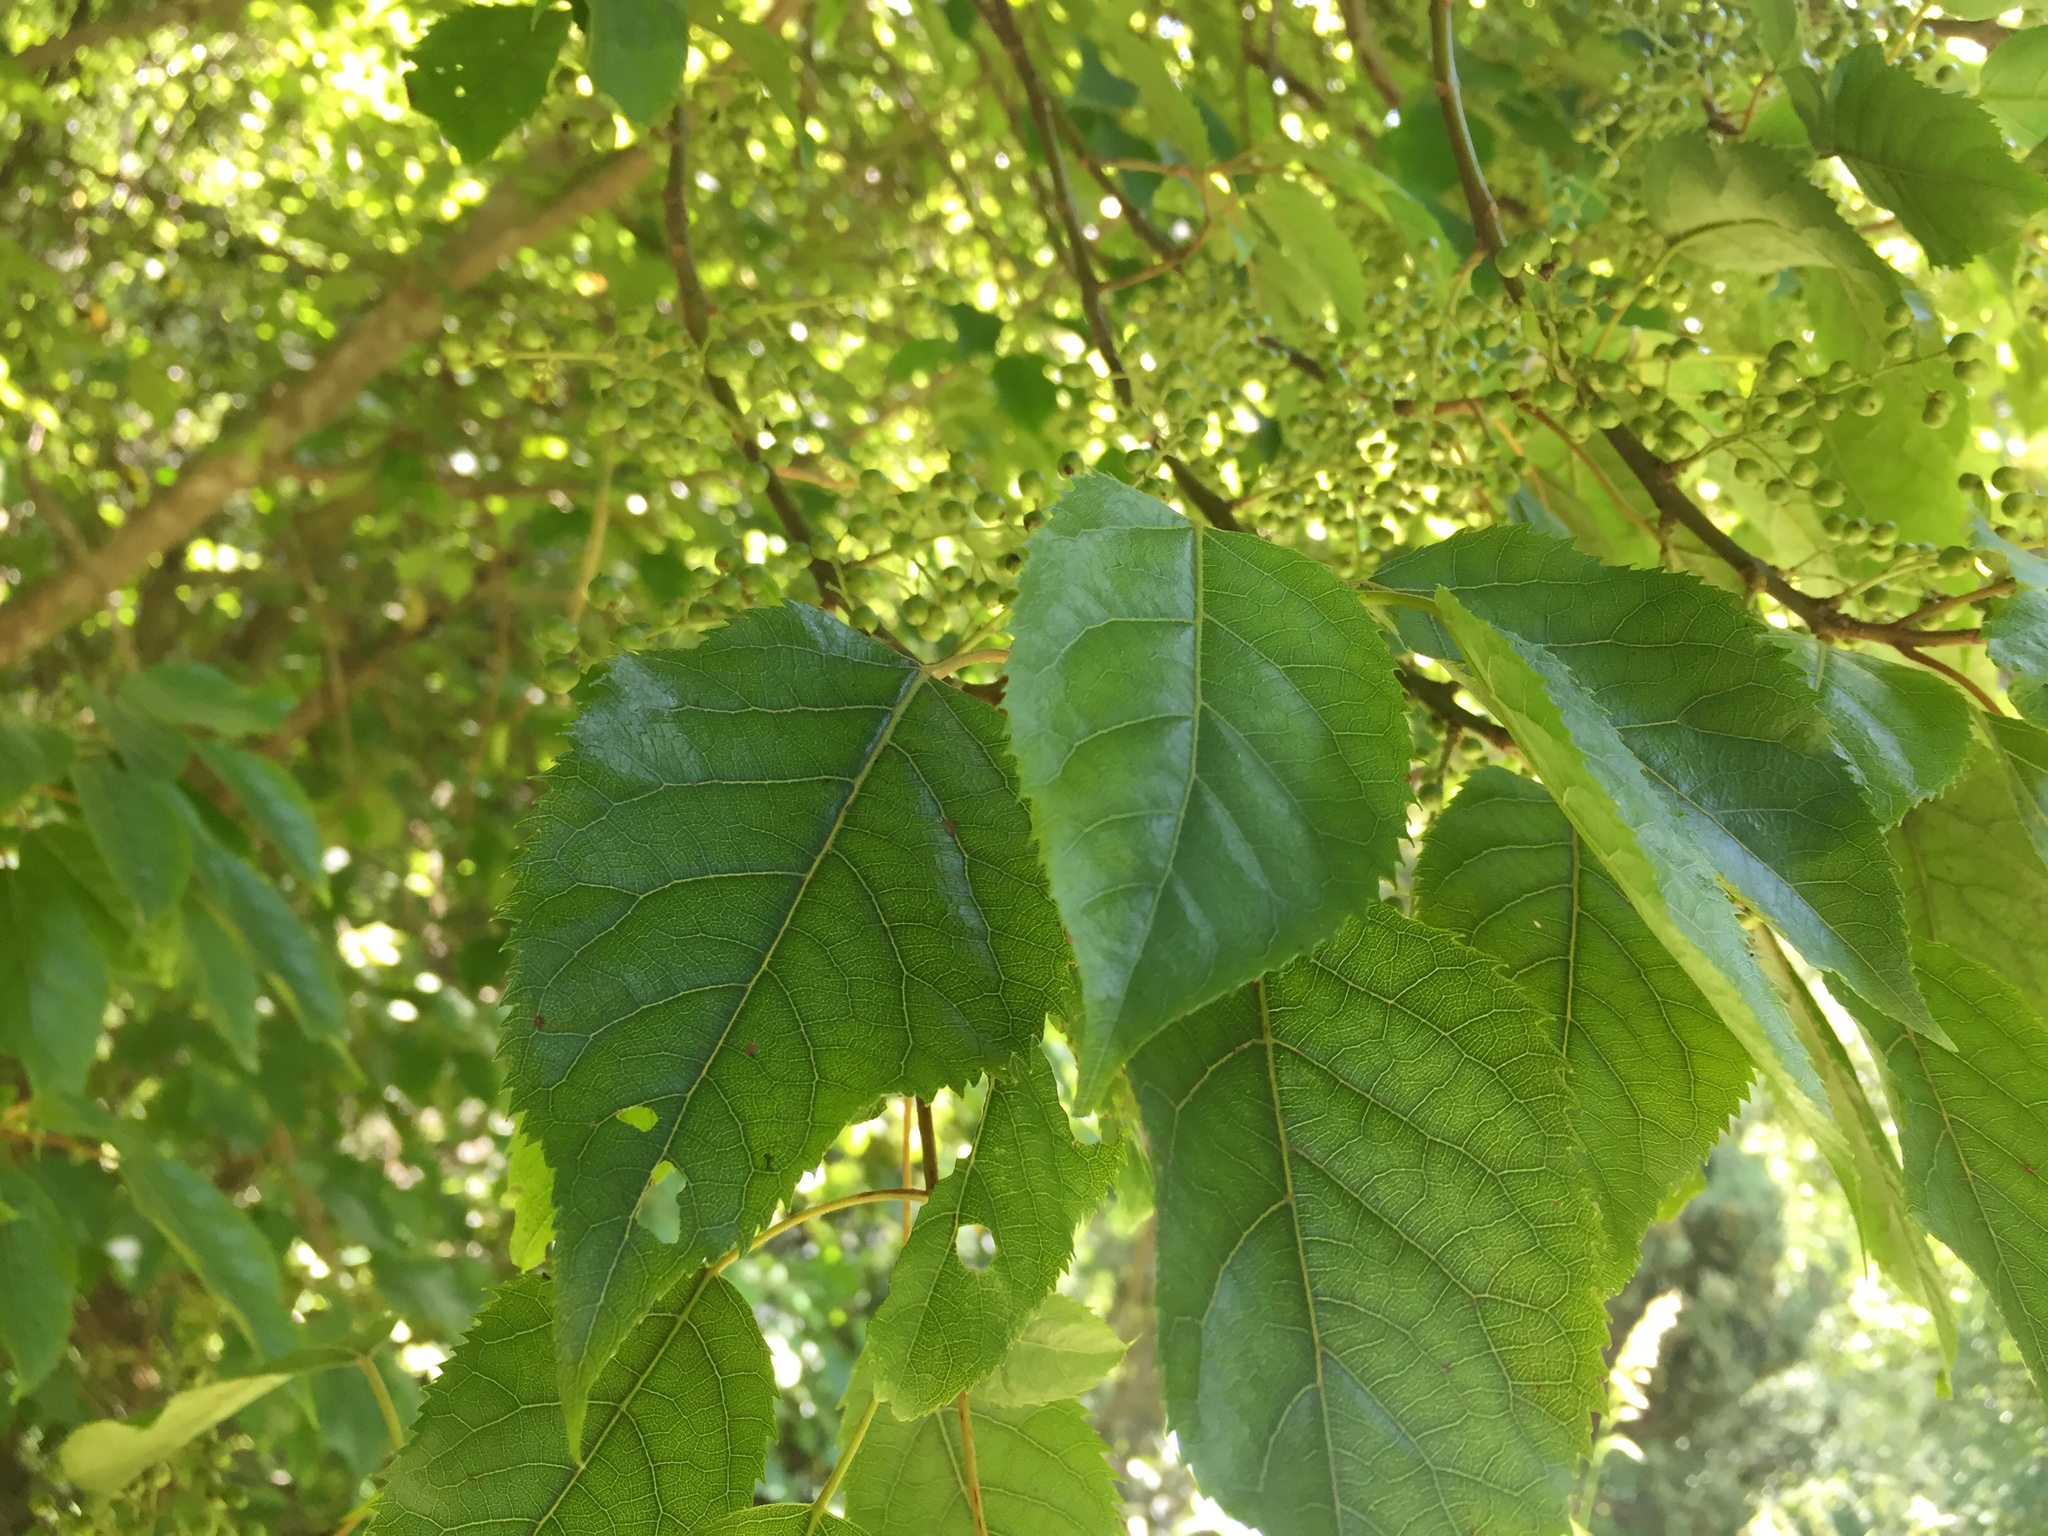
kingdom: Plantae
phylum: Tracheophyta
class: Magnoliopsida
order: Oxalidales
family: Elaeocarpaceae
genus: Aristotelia
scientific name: Aristotelia serrata
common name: New zealand wineberry
